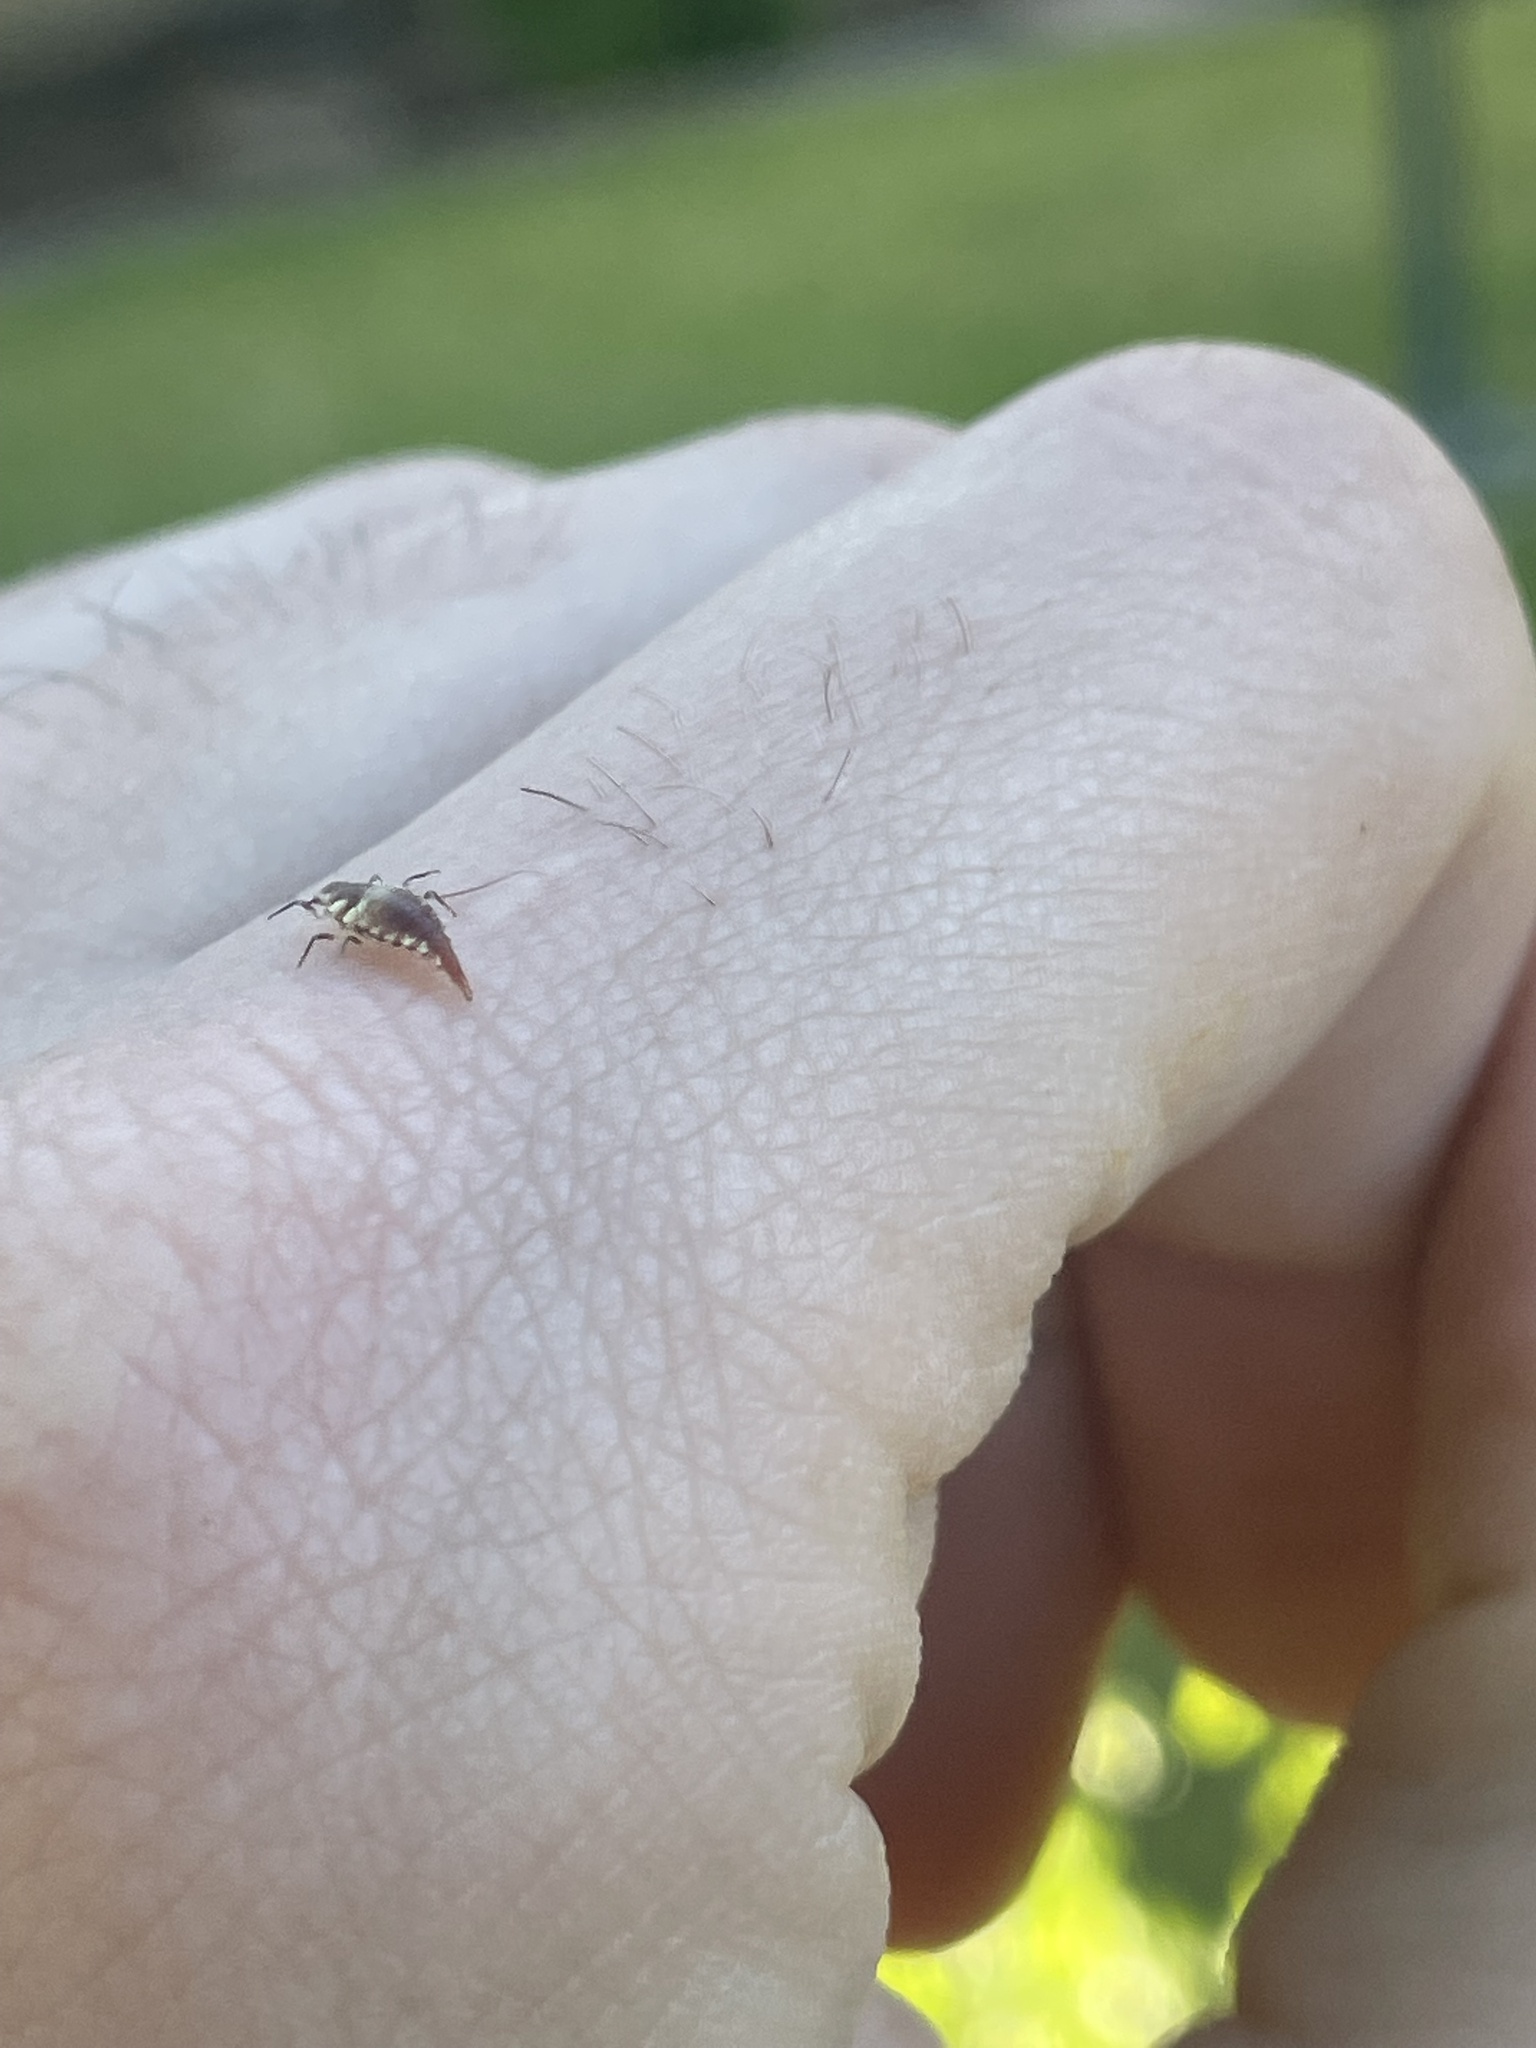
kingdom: Animalia
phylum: Arthropoda
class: Insecta
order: Neuroptera
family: Chrysopidae
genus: Chrysoperla
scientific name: Chrysoperla rufilabris
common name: Red-lipped green lacewing
